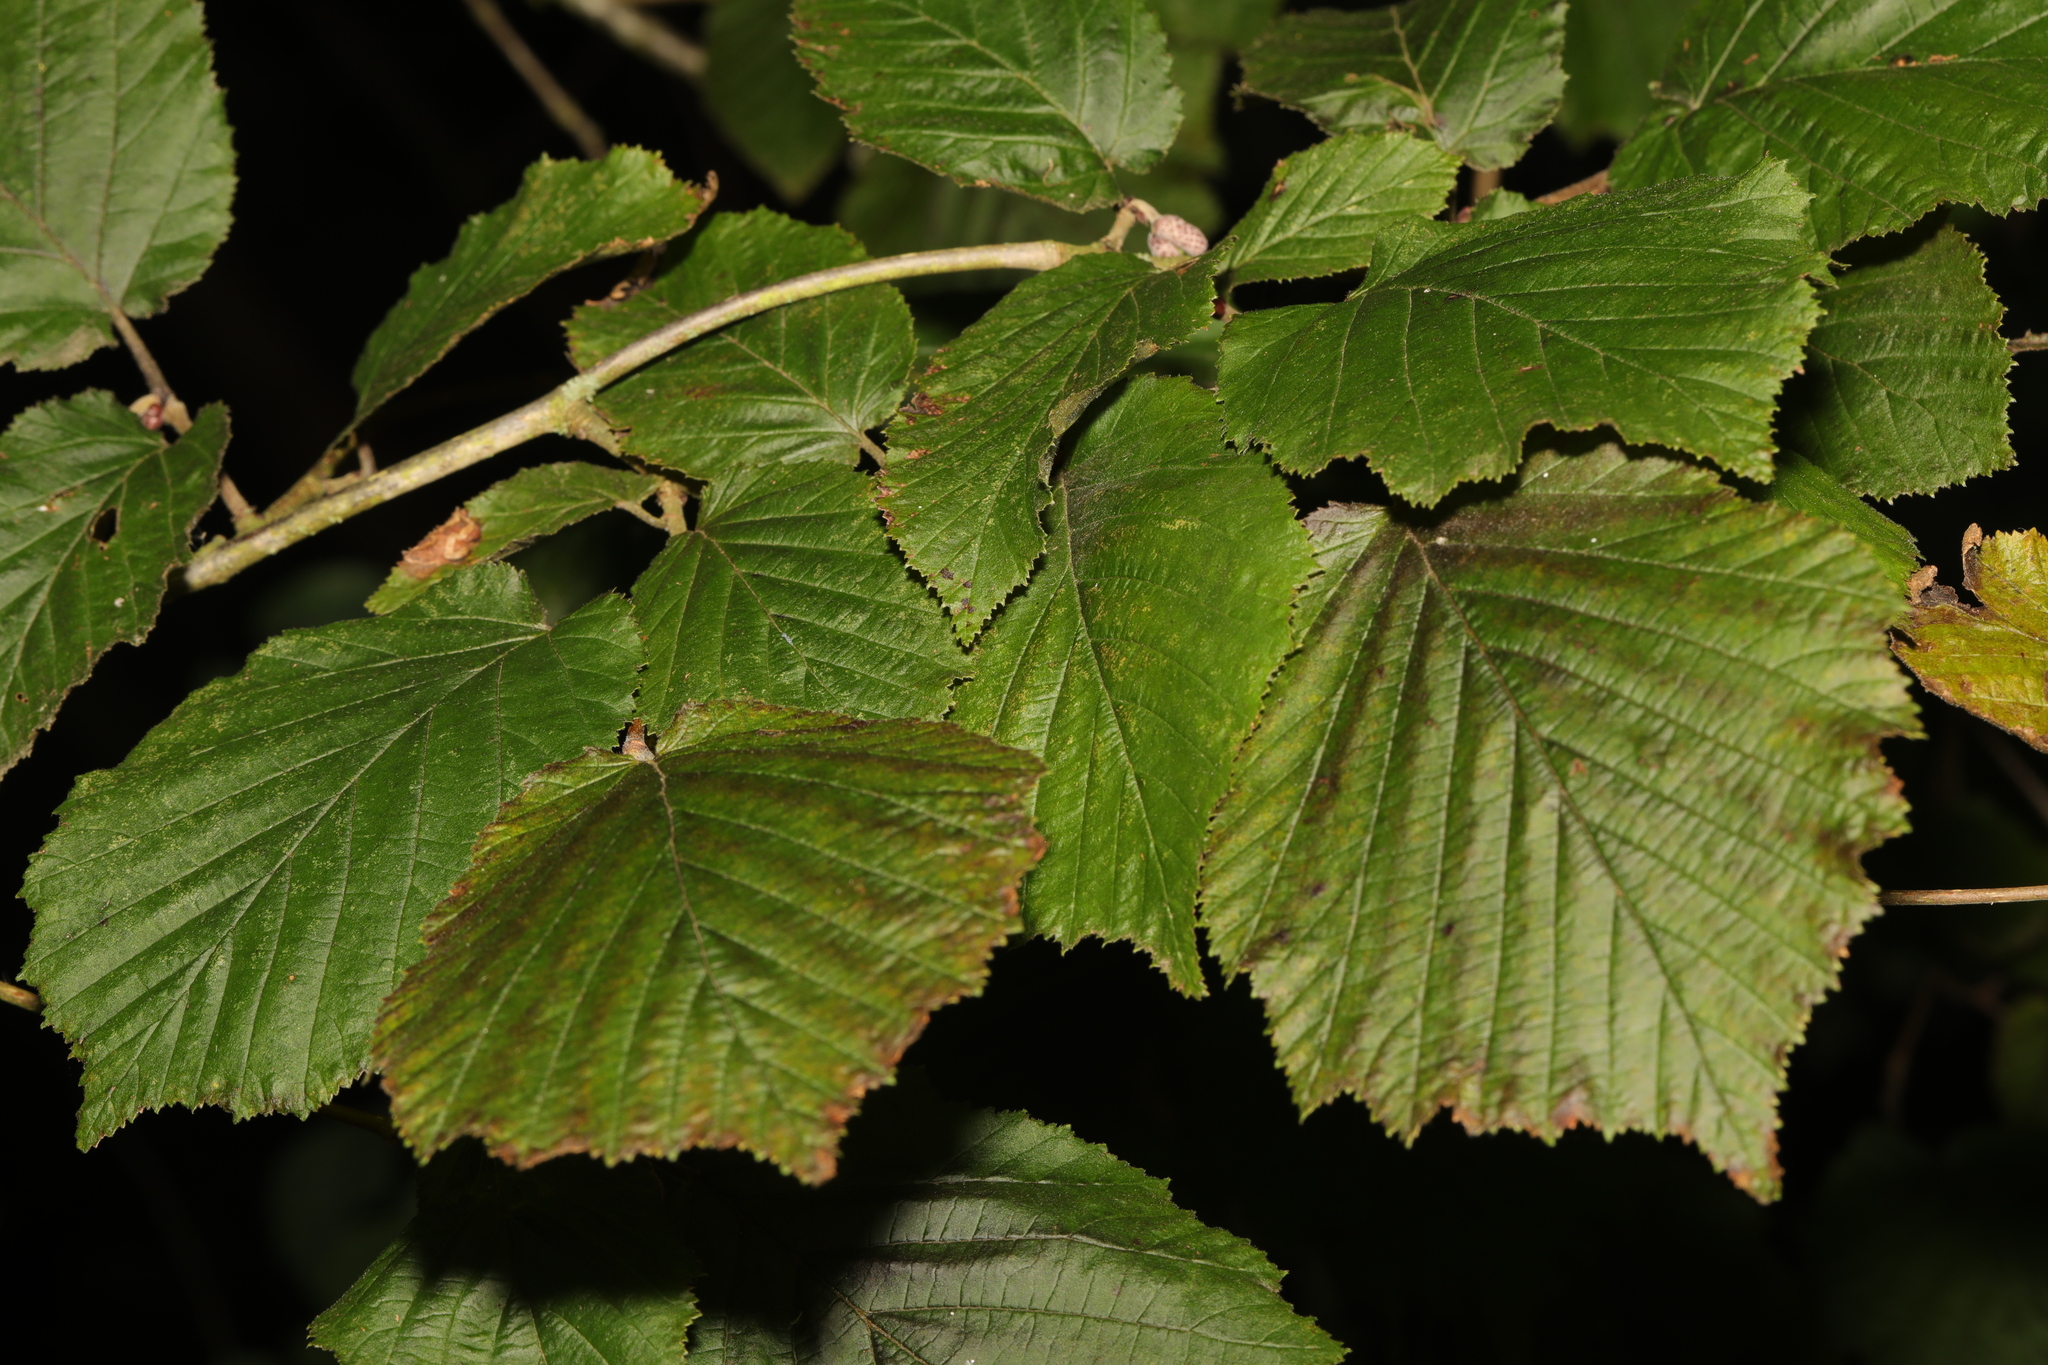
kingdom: Plantae
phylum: Tracheophyta
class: Magnoliopsida
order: Fagales
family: Betulaceae
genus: Corylus
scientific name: Corylus avellana
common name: European hazel
